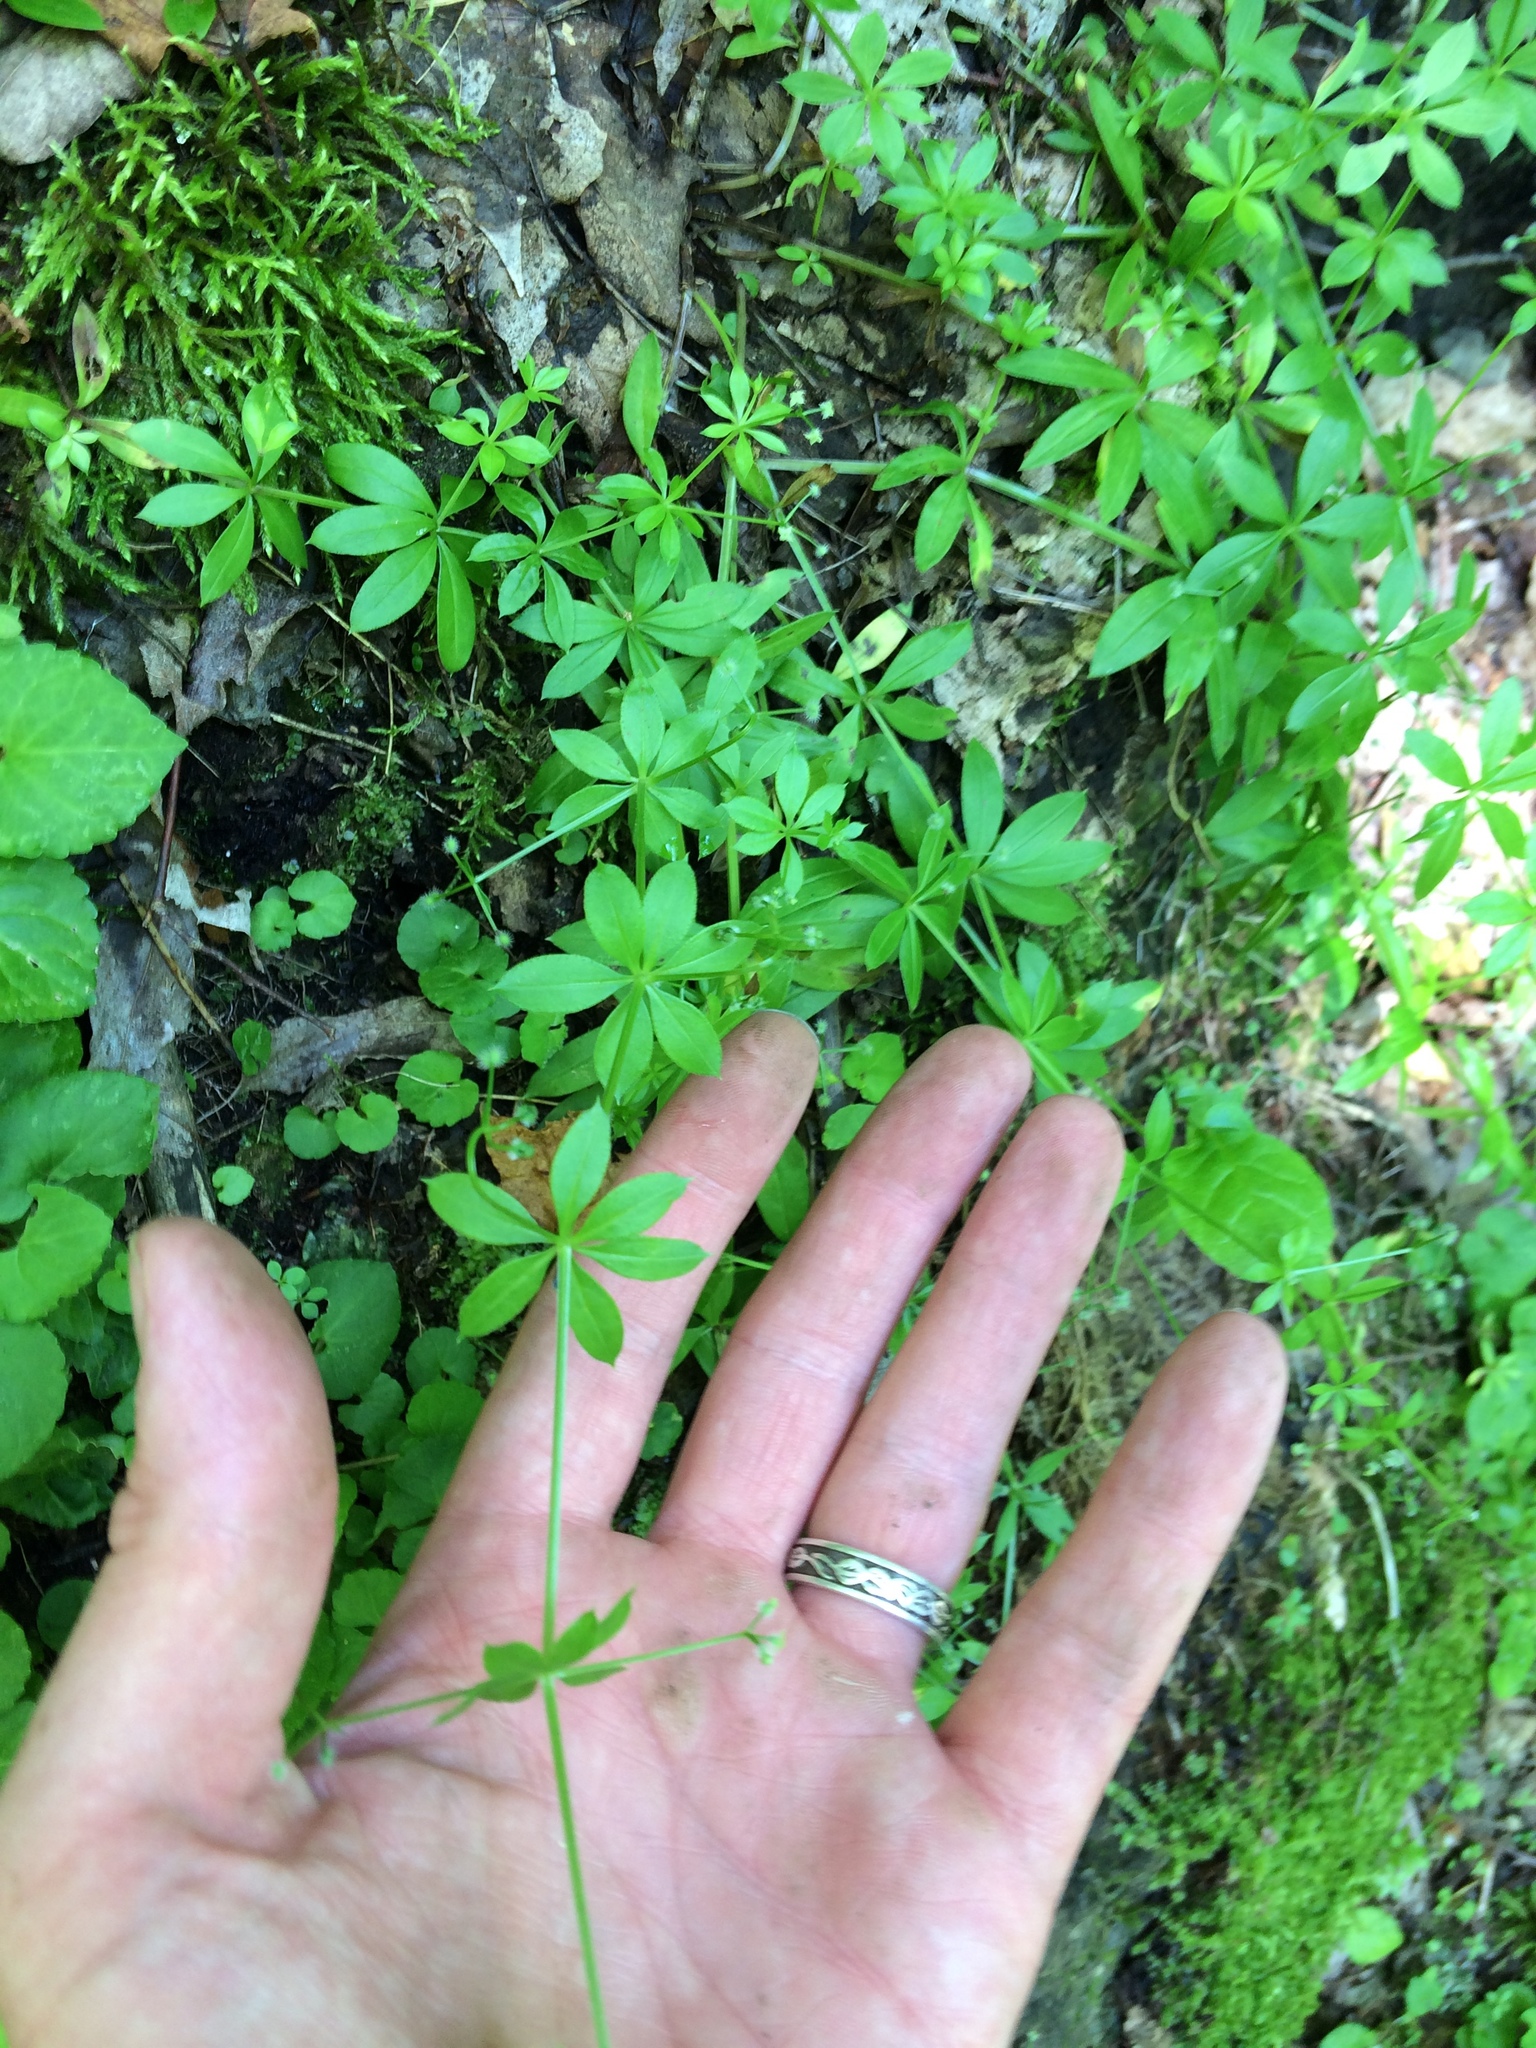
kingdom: Plantae
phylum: Tracheophyta
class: Magnoliopsida
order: Gentianales
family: Rubiaceae
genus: Galium
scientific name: Galium triflorum
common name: Fragrant bedstraw
